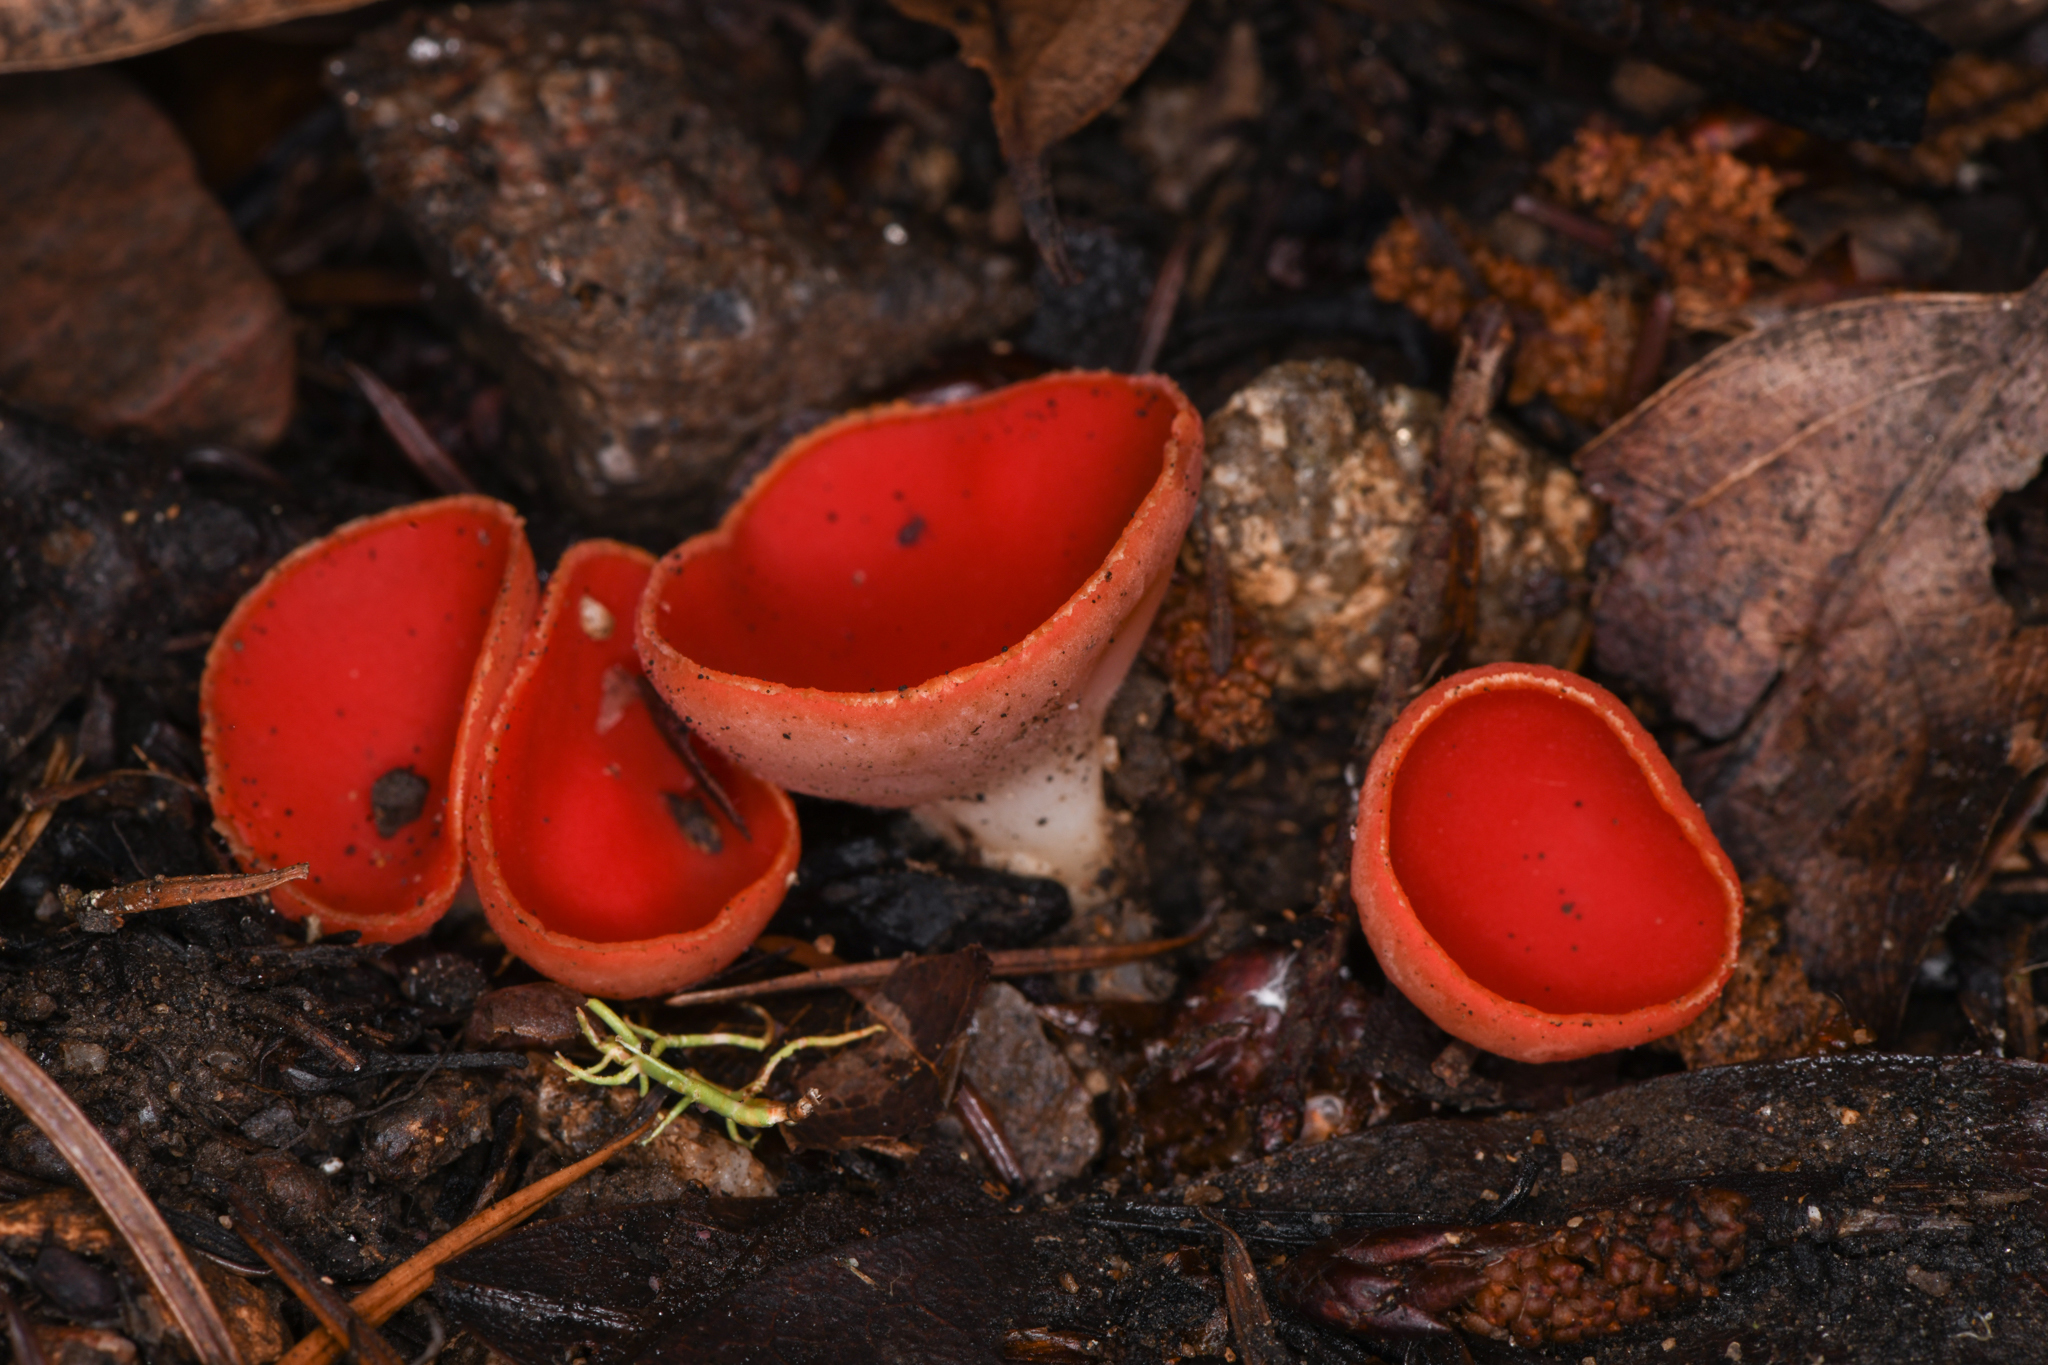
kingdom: Fungi
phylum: Ascomycota
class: Pezizomycetes
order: Pezizales
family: Sarcoscyphaceae
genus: Sarcoscypha
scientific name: Sarcoscypha coccinea
